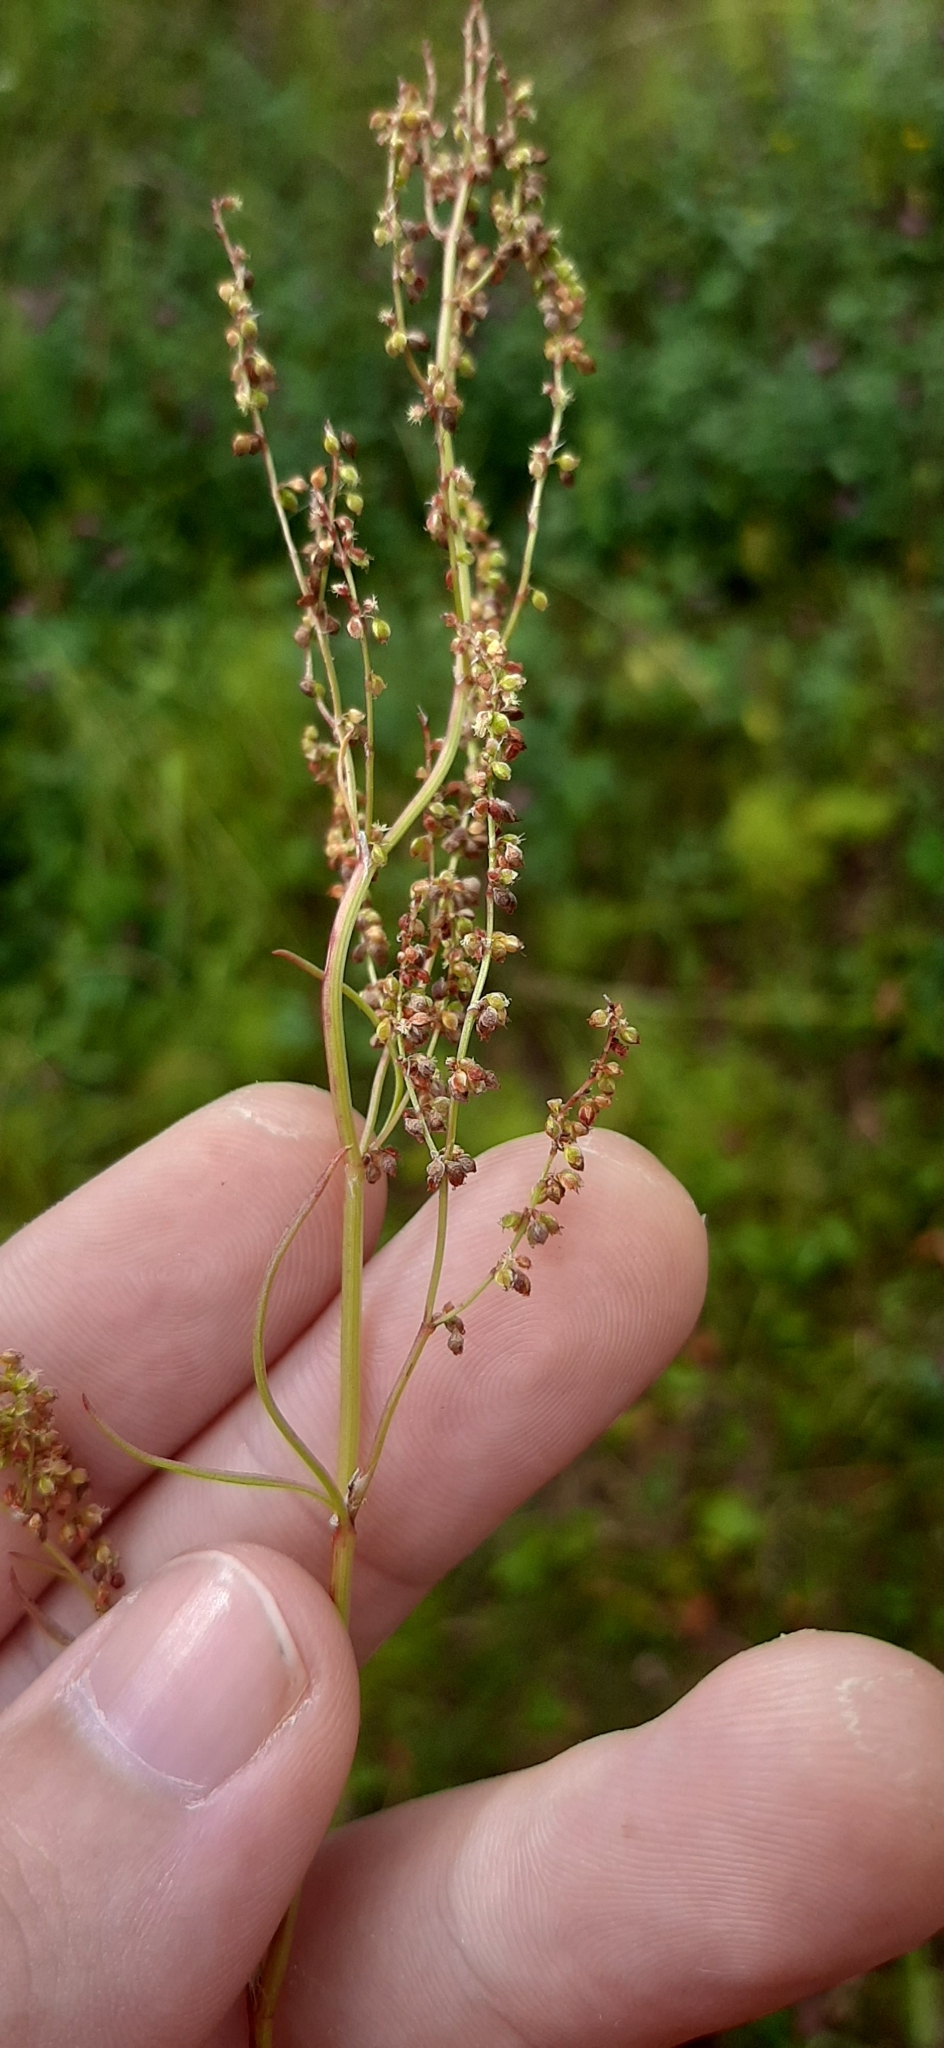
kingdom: Plantae
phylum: Tracheophyta
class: Magnoliopsida
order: Caryophyllales
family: Polygonaceae
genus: Rumex
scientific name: Rumex acetosella
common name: Common sheep sorrel
